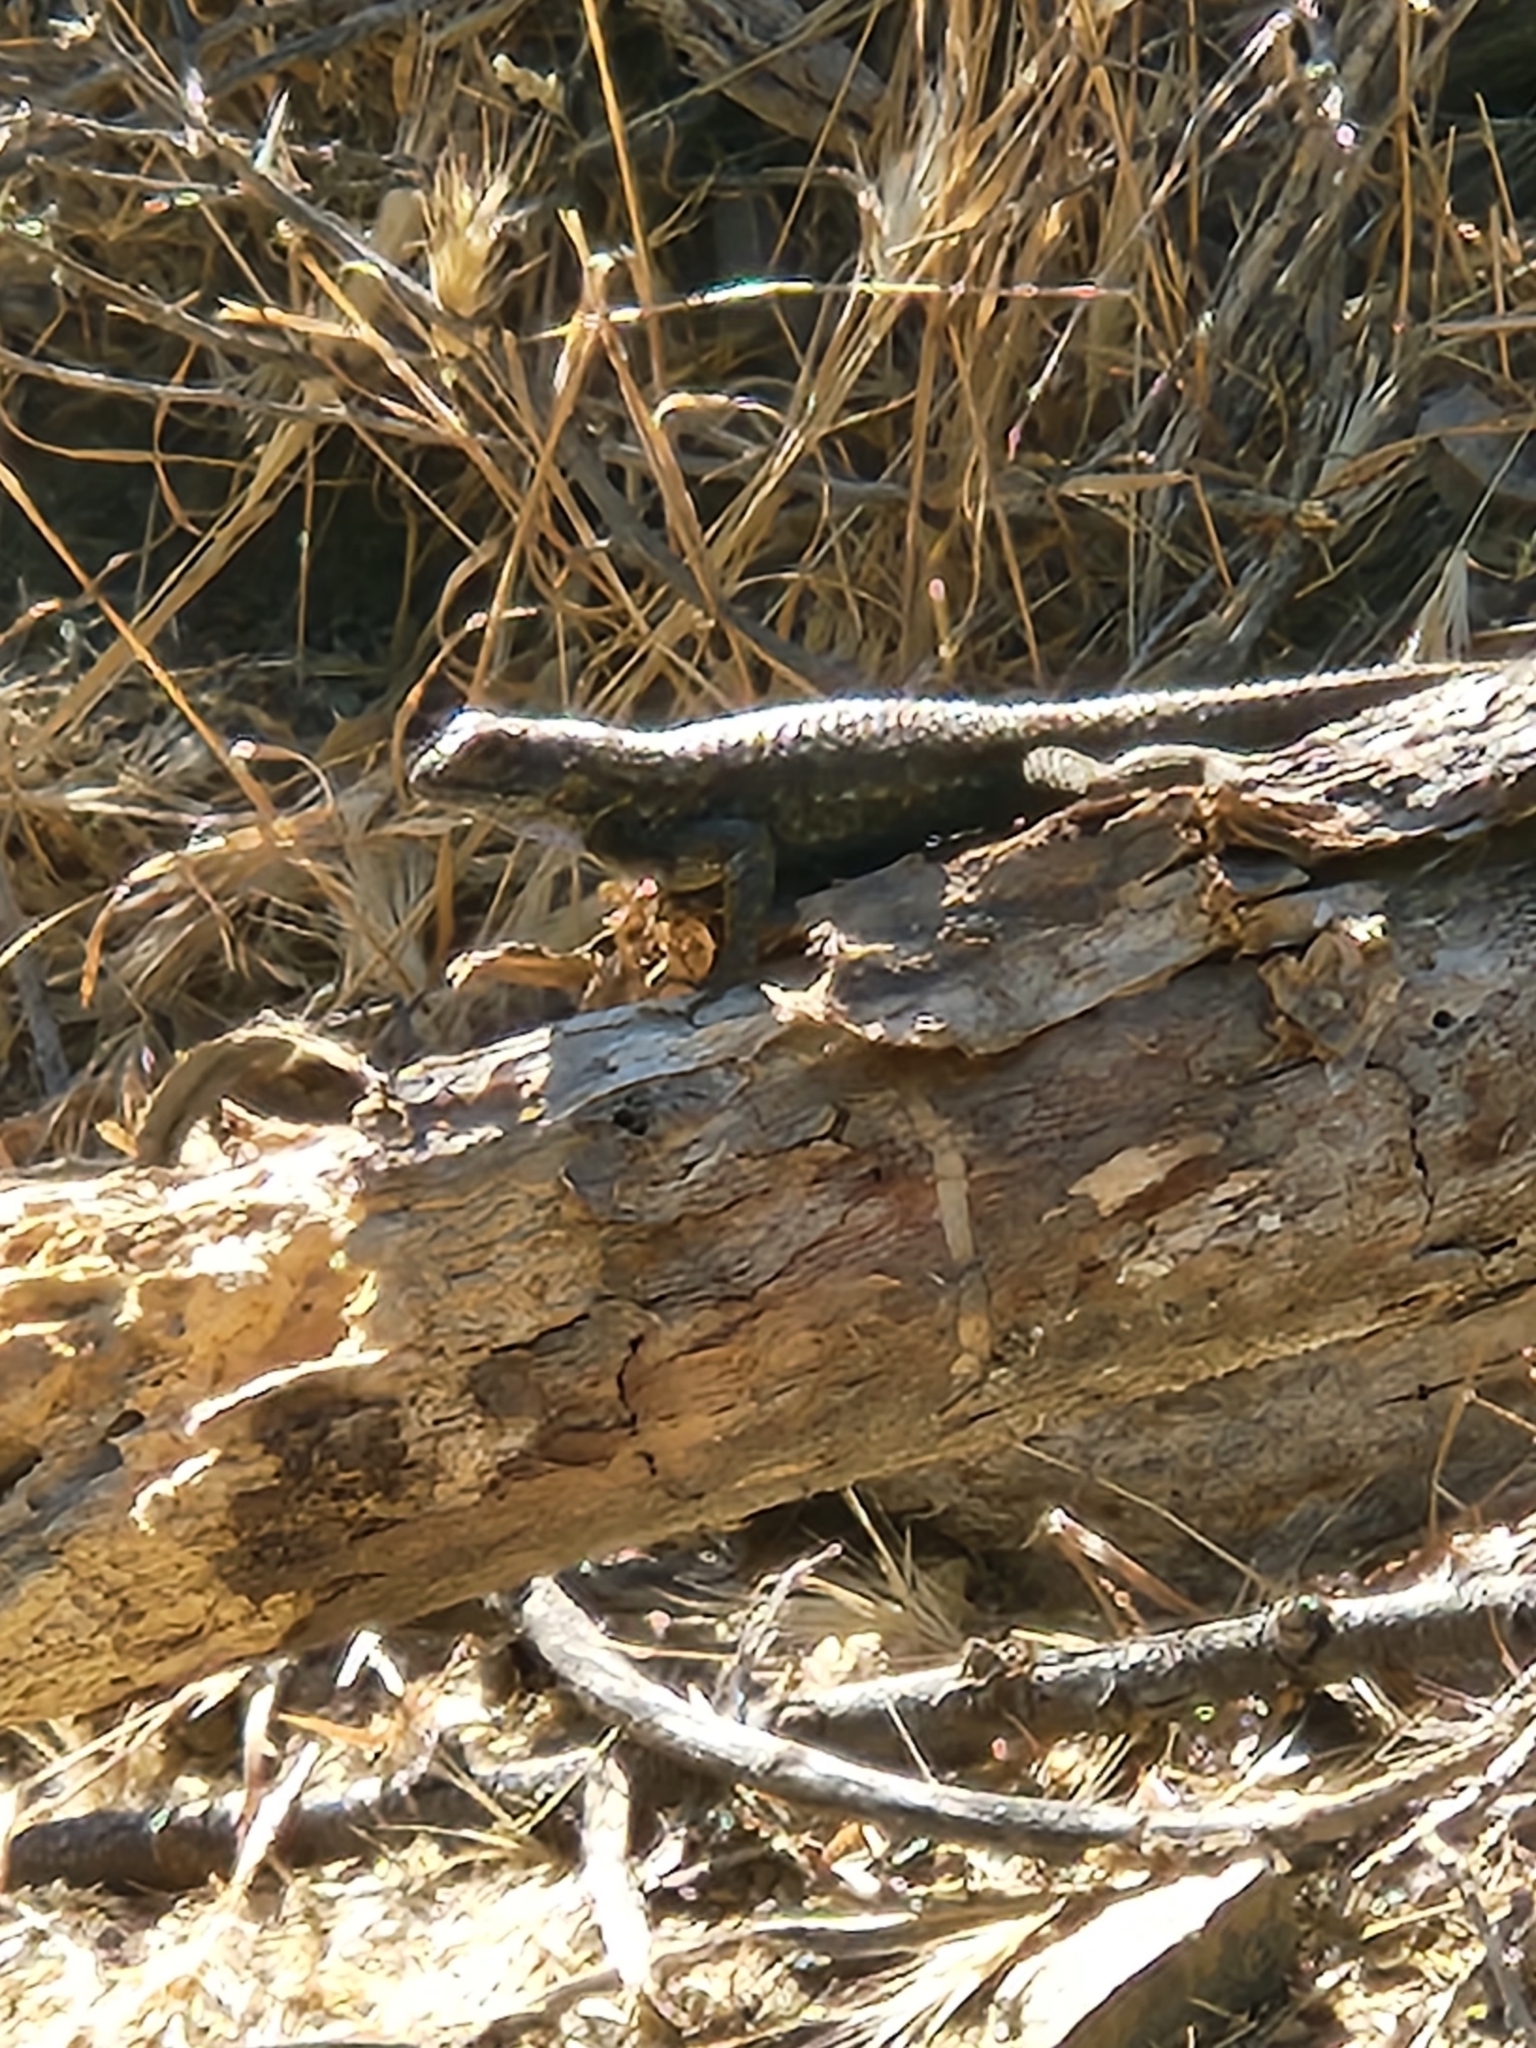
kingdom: Animalia
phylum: Chordata
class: Squamata
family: Phrynosomatidae
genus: Sceloporus
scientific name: Sceloporus occidentalis
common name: Western fence lizard
